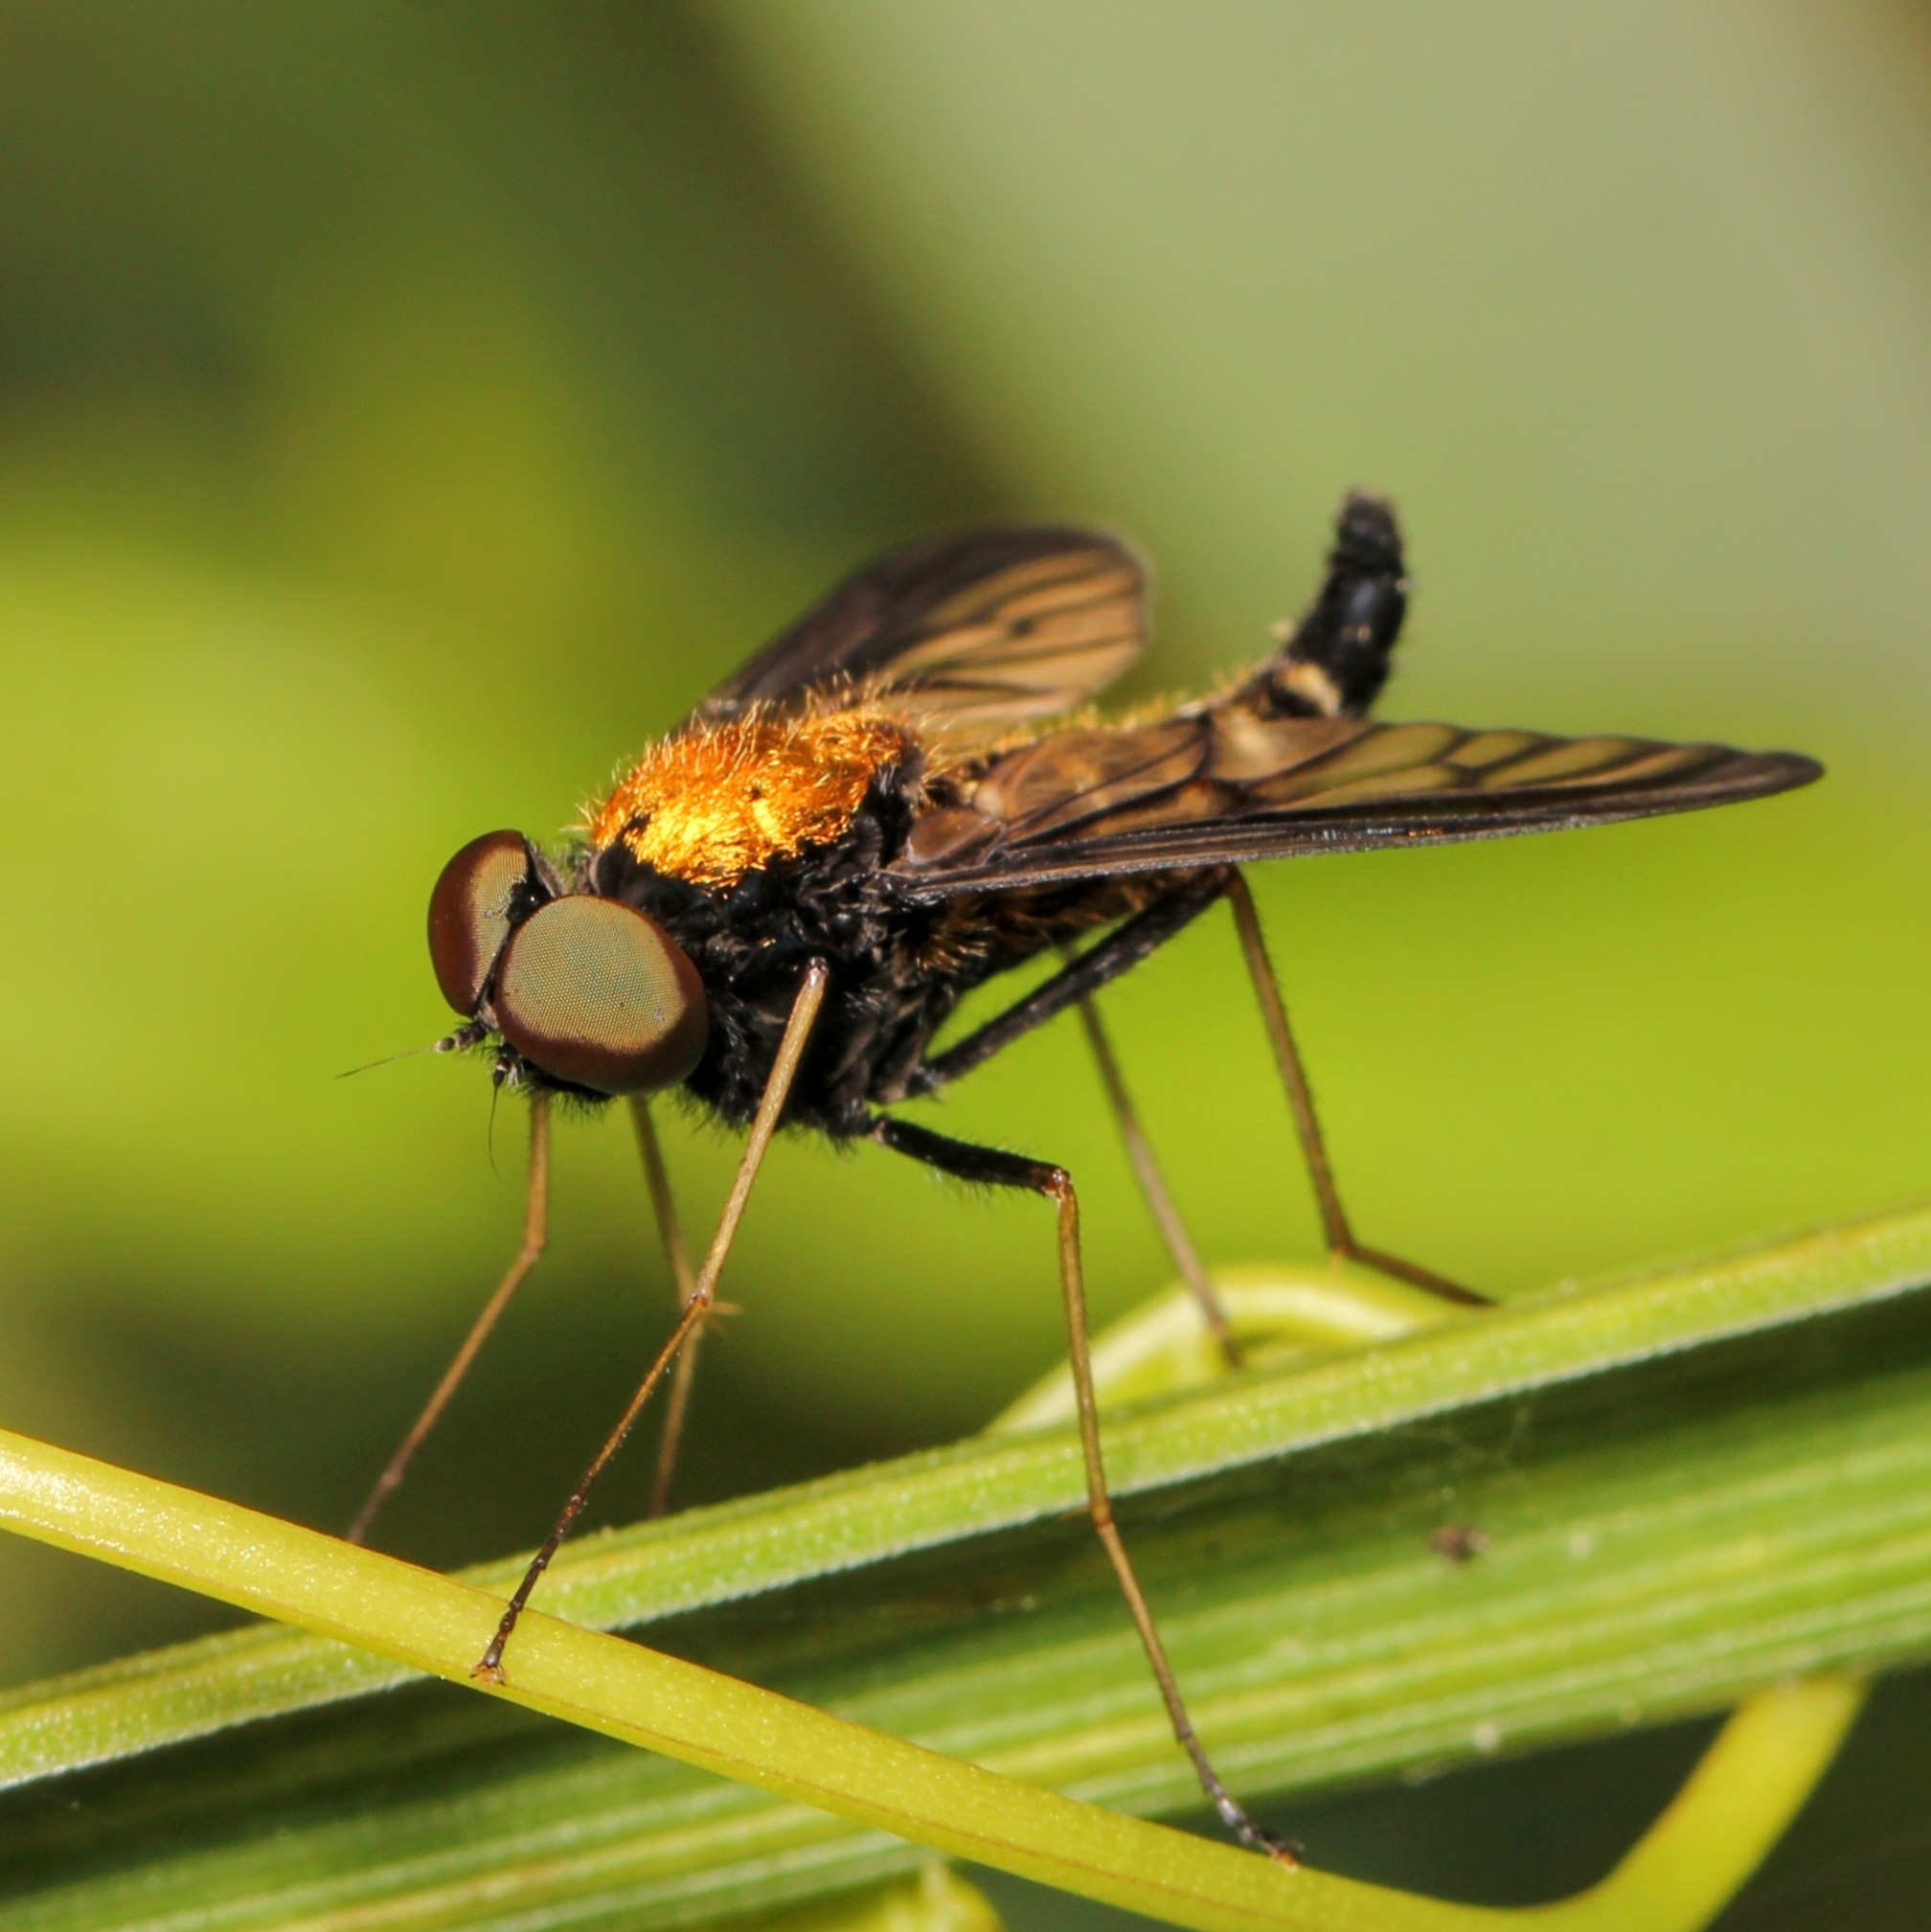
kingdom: Animalia
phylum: Arthropoda
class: Insecta
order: Diptera
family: Rhagionidae
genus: Chrysopilus
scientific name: Chrysopilus thoracicus
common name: Golden-backed snipe fly
